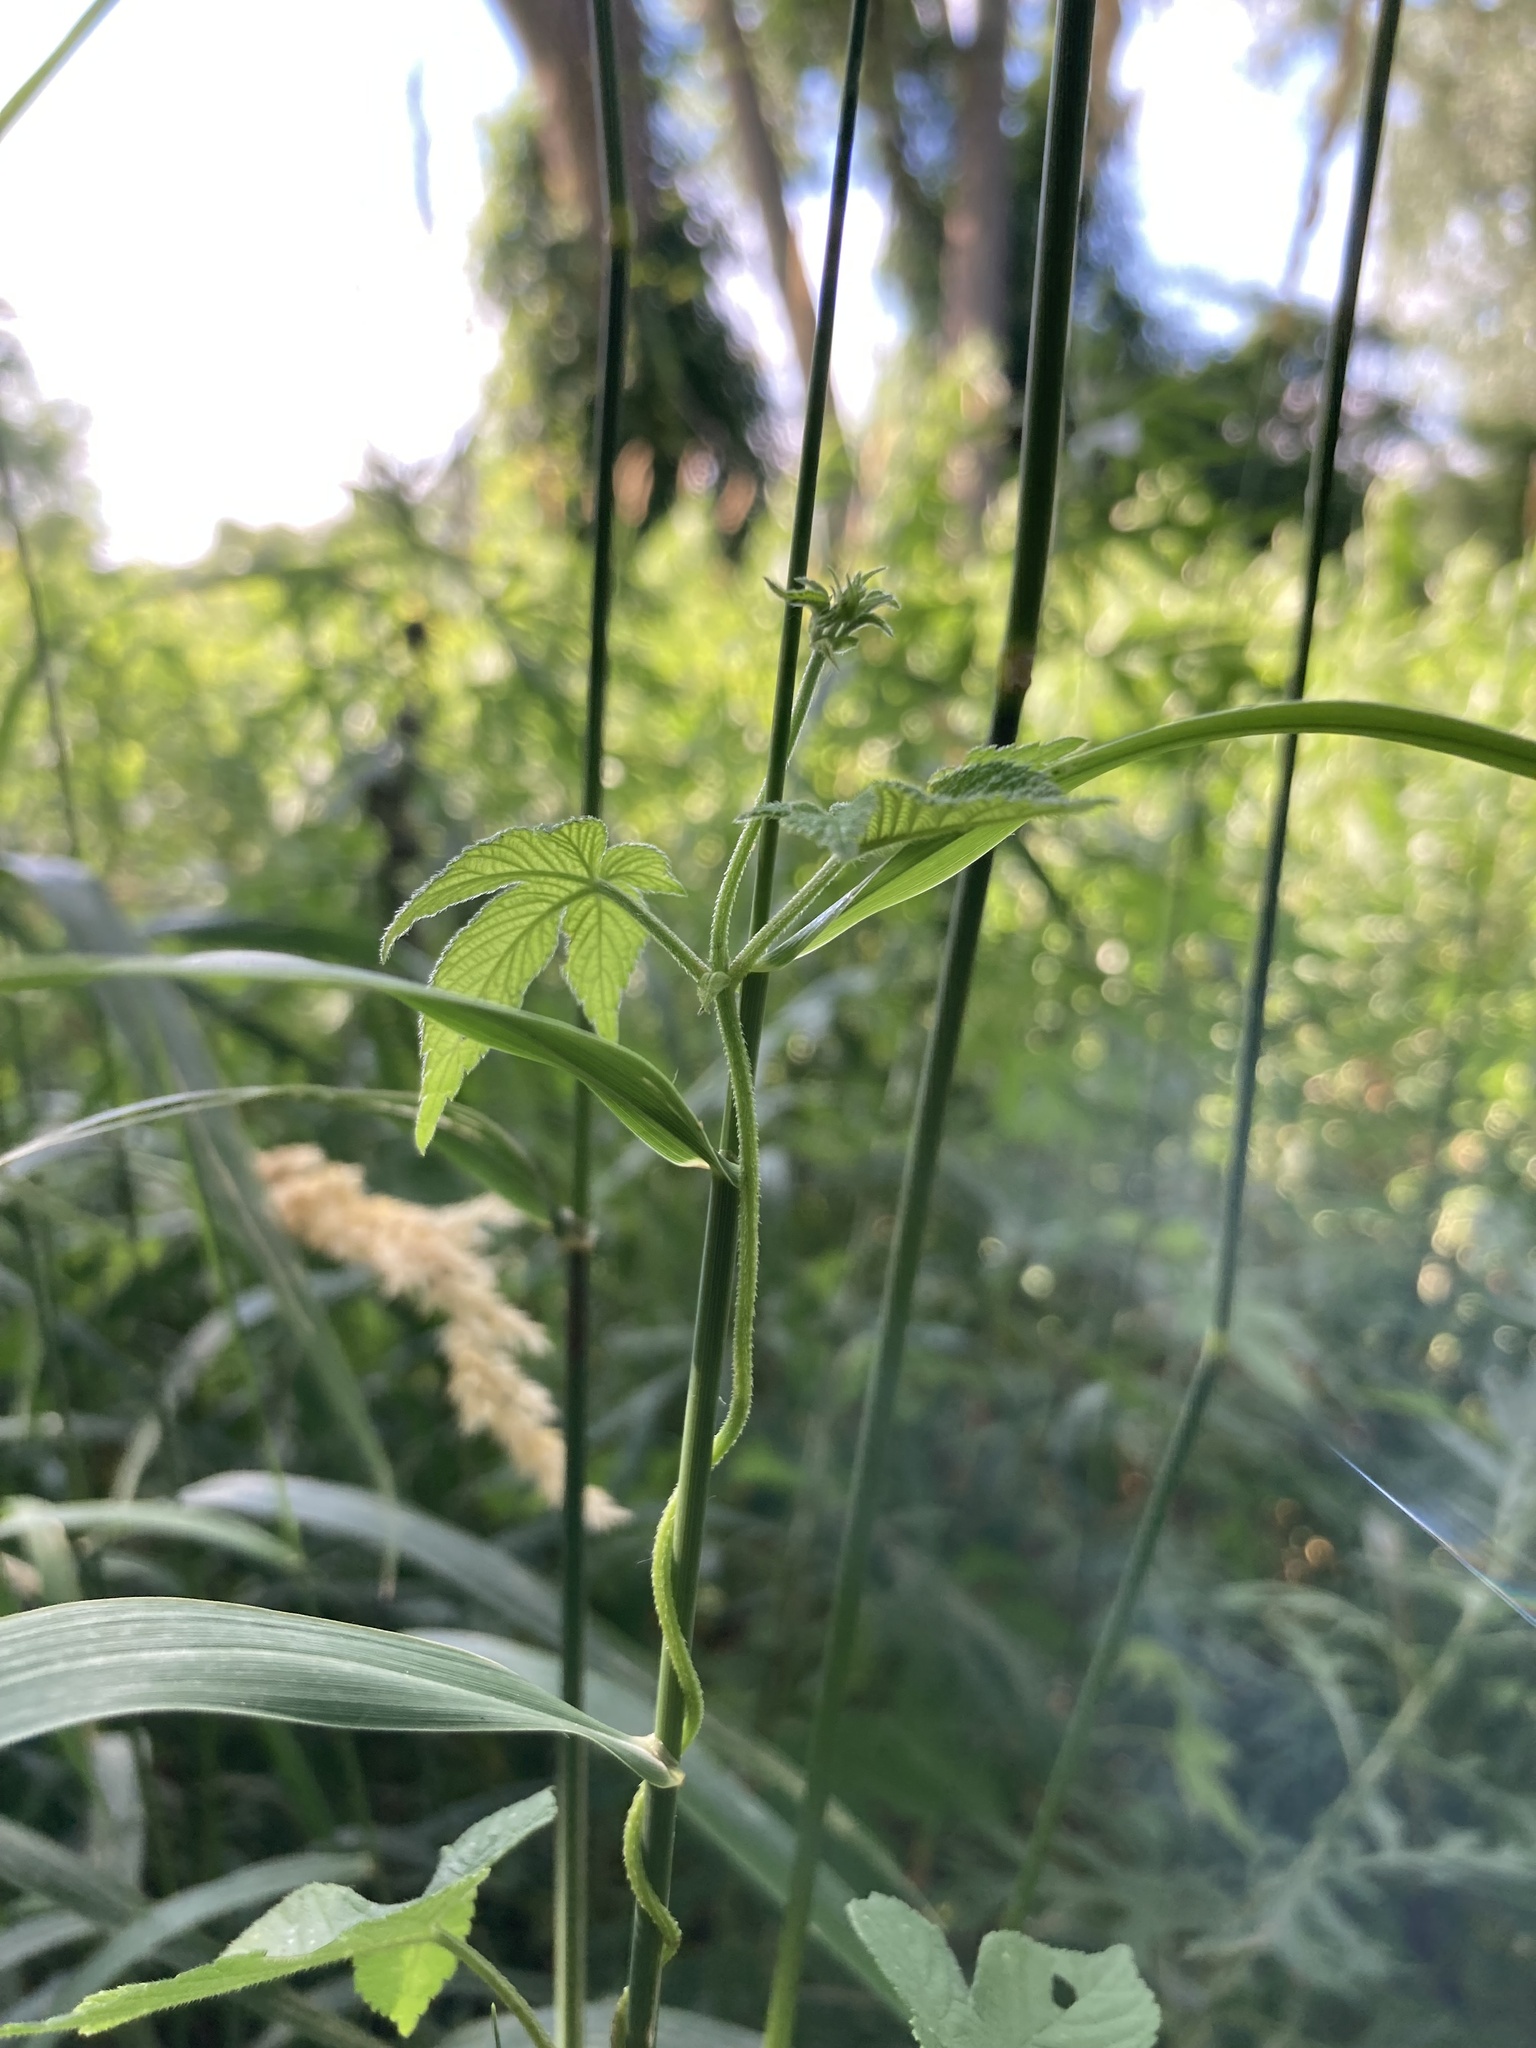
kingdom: Plantae
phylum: Tracheophyta
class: Magnoliopsida
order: Rosales
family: Cannabaceae
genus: Humulus
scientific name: Humulus scandens
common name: Japanese hop
